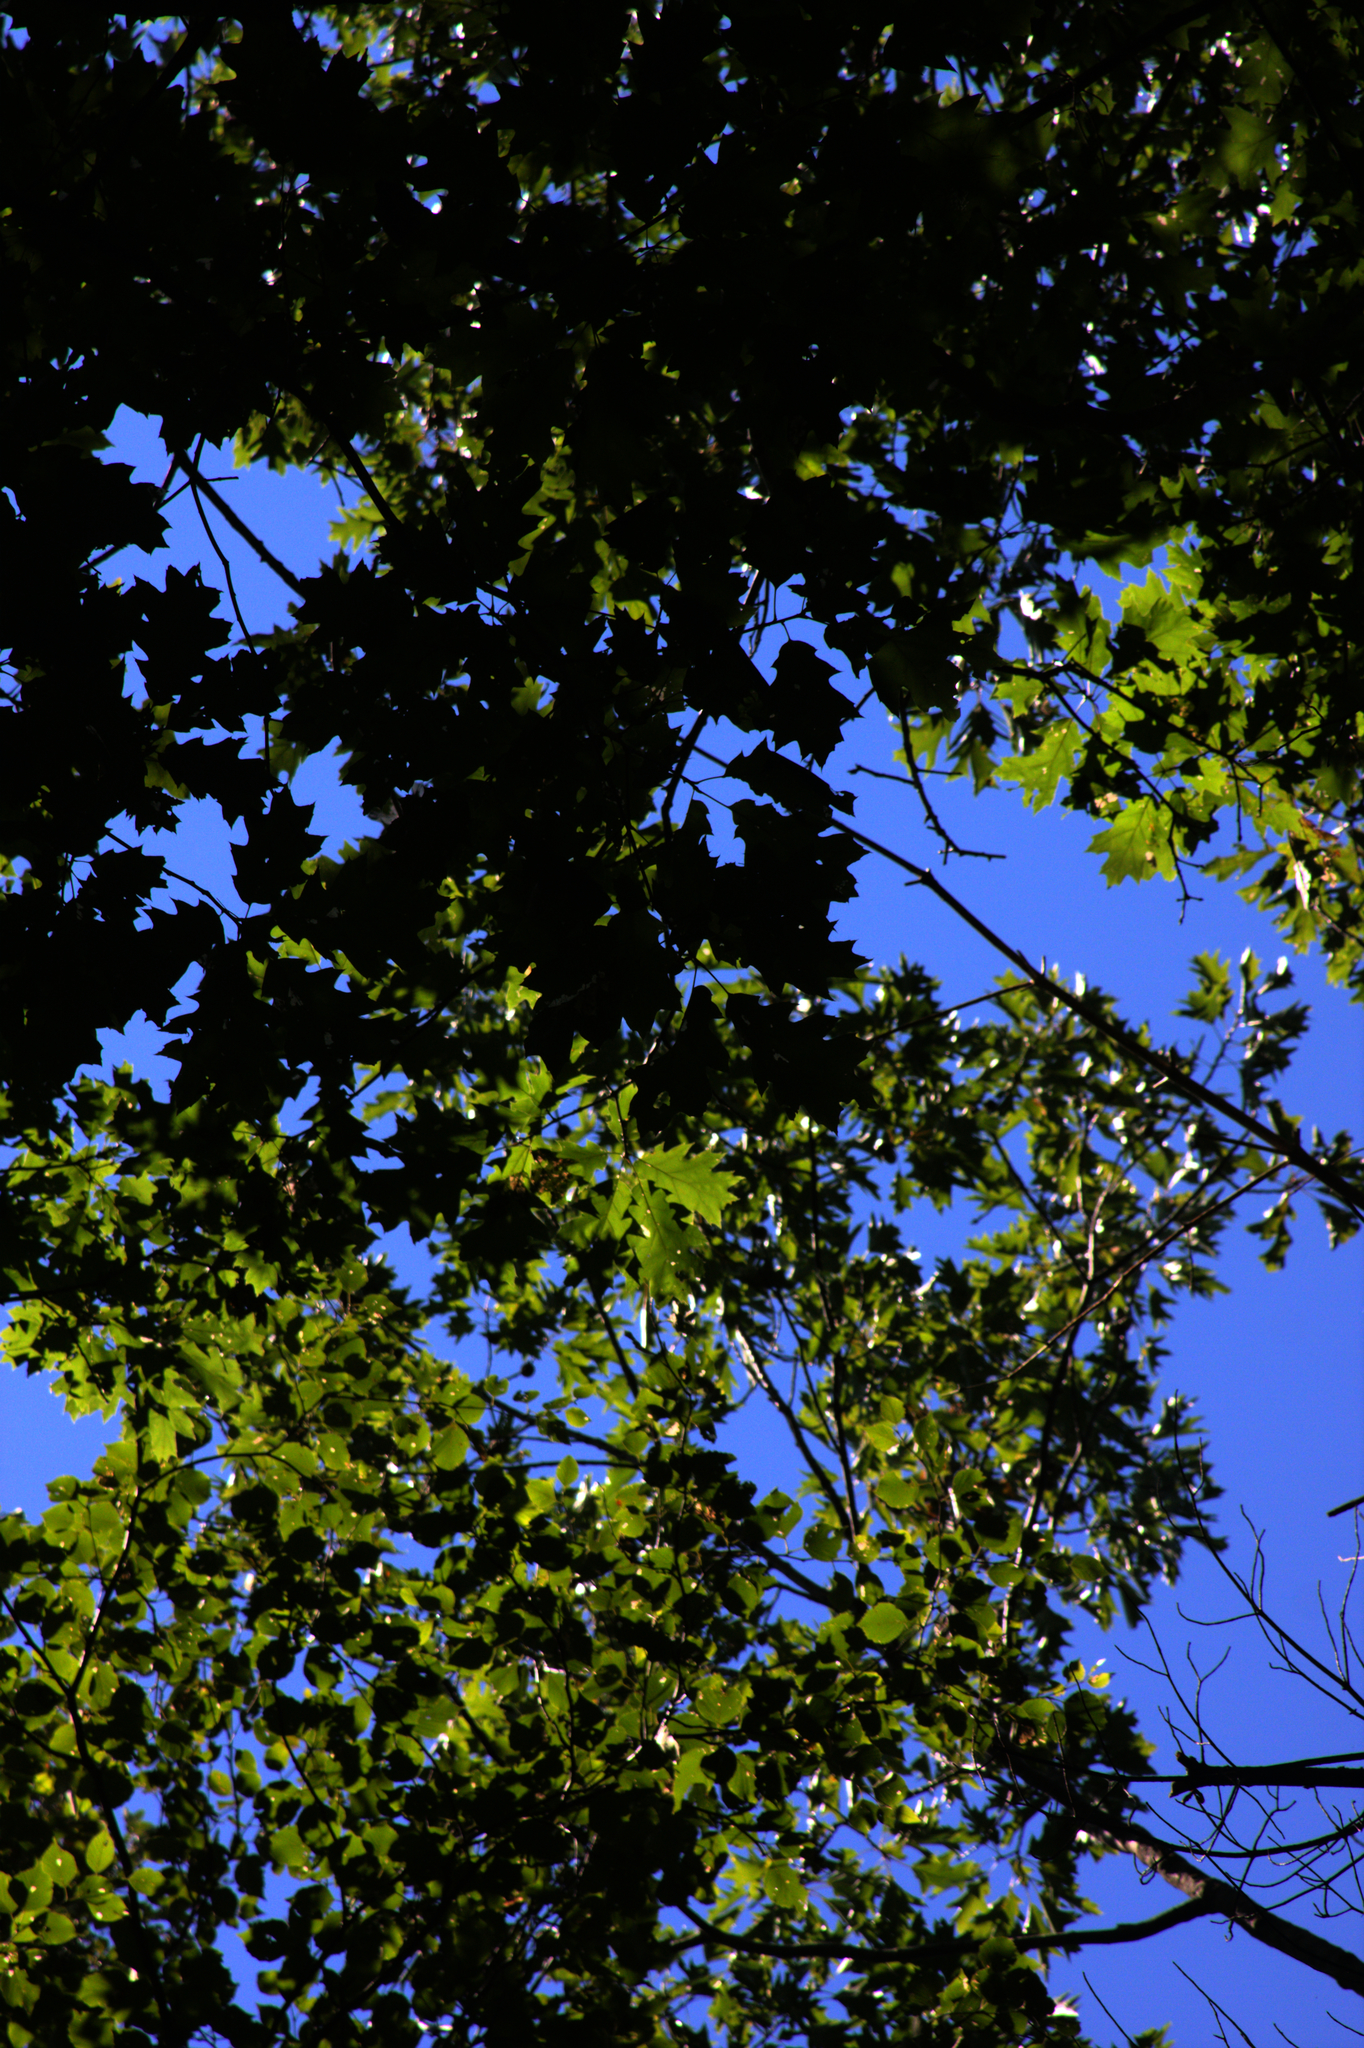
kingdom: Plantae
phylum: Tracheophyta
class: Magnoliopsida
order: Fagales
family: Fagaceae
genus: Quercus
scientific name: Quercus rubra
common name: Red oak
